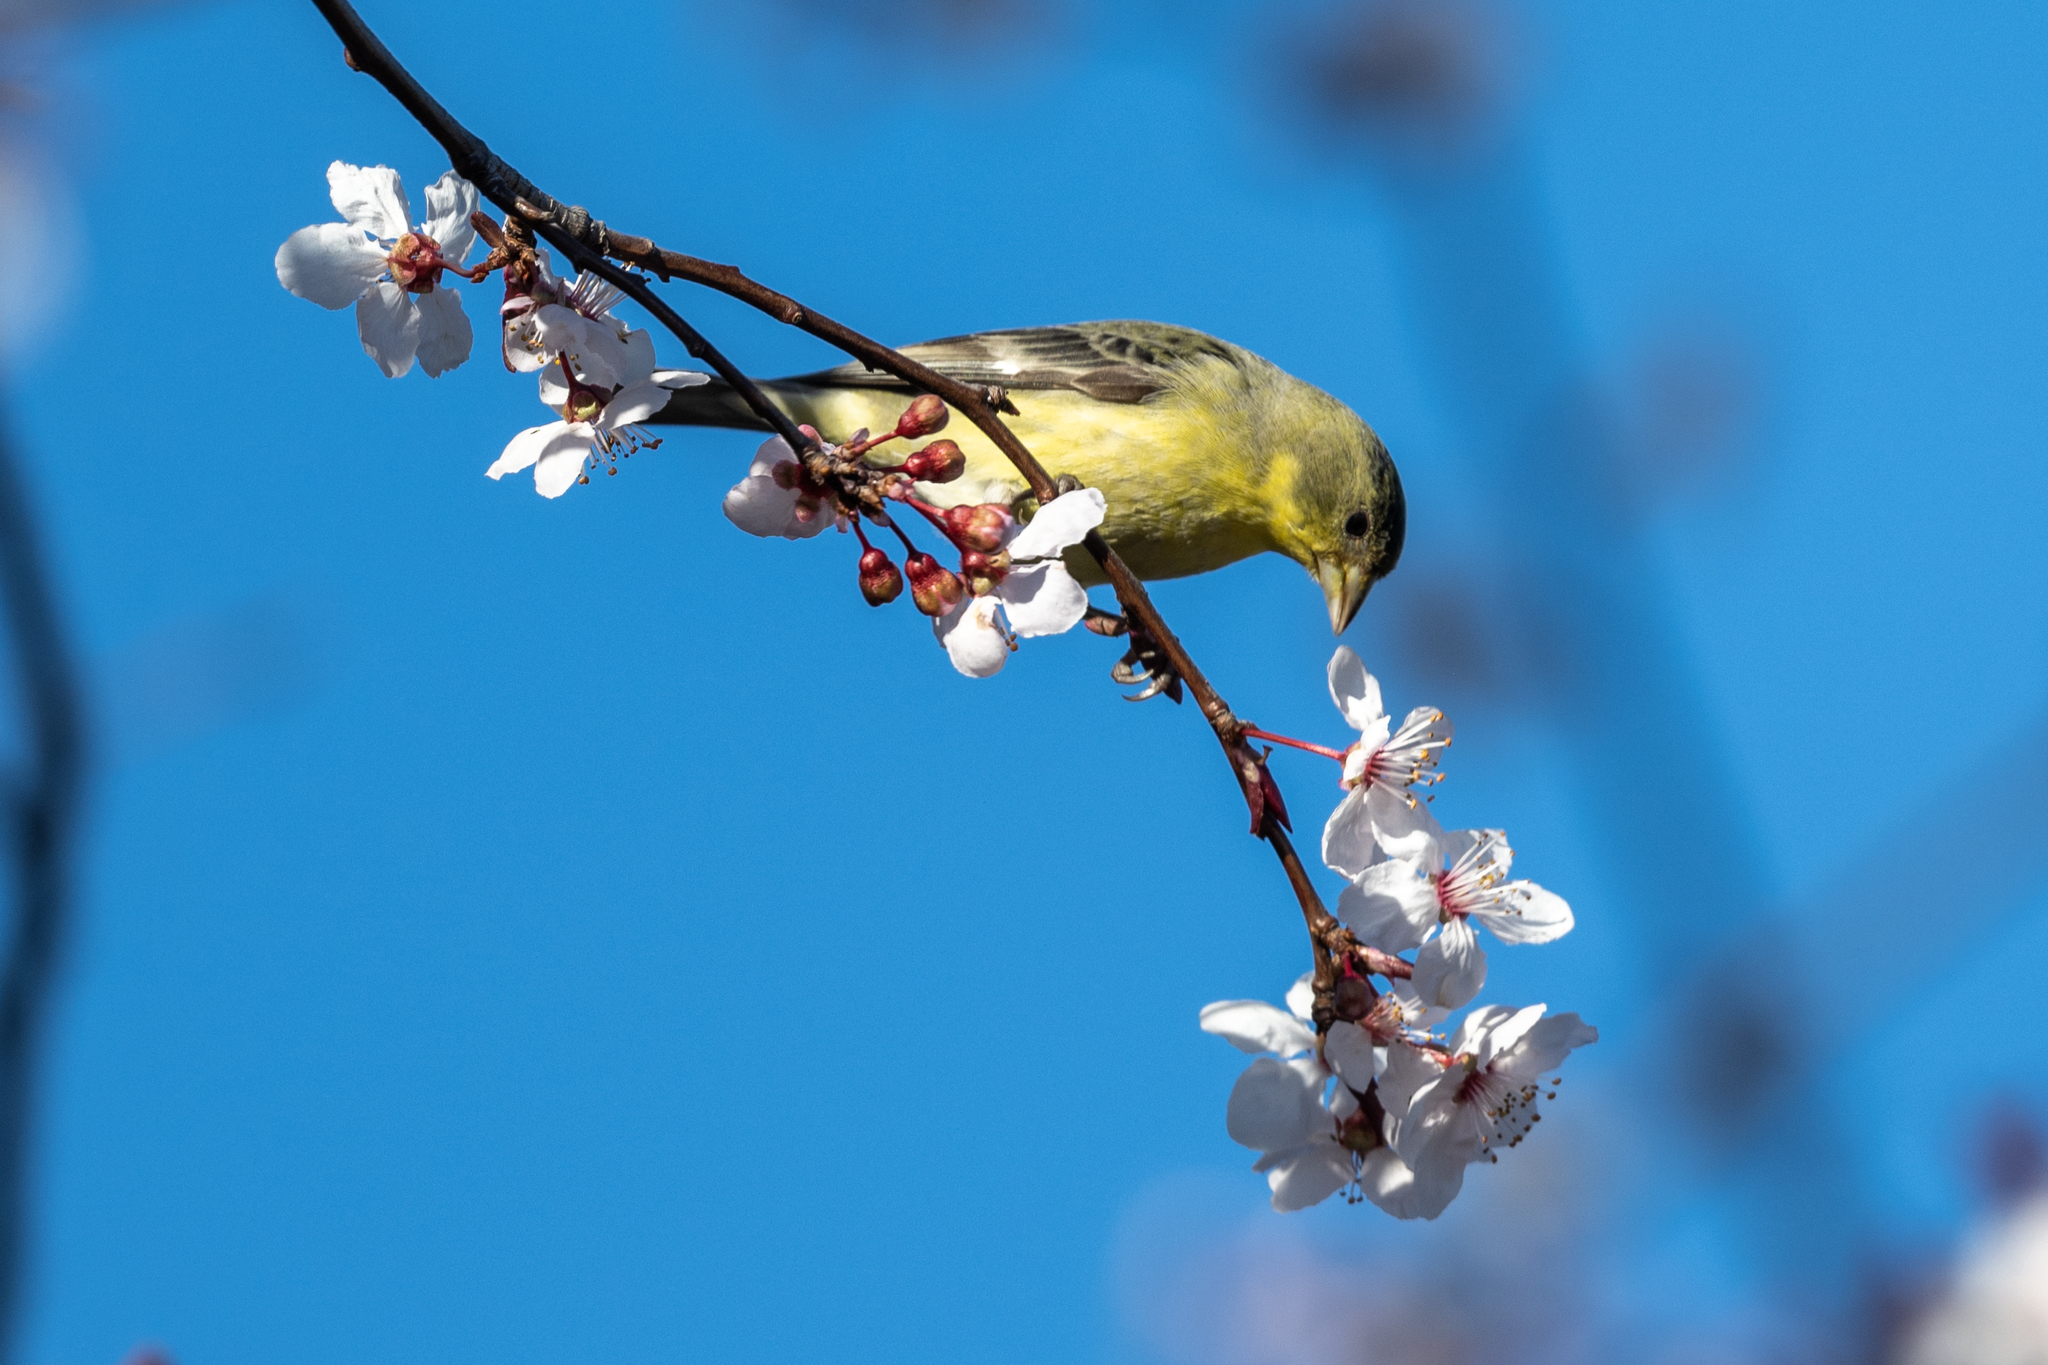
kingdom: Animalia
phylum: Chordata
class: Aves
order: Passeriformes
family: Fringillidae
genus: Spinus
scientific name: Spinus psaltria
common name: Lesser goldfinch
